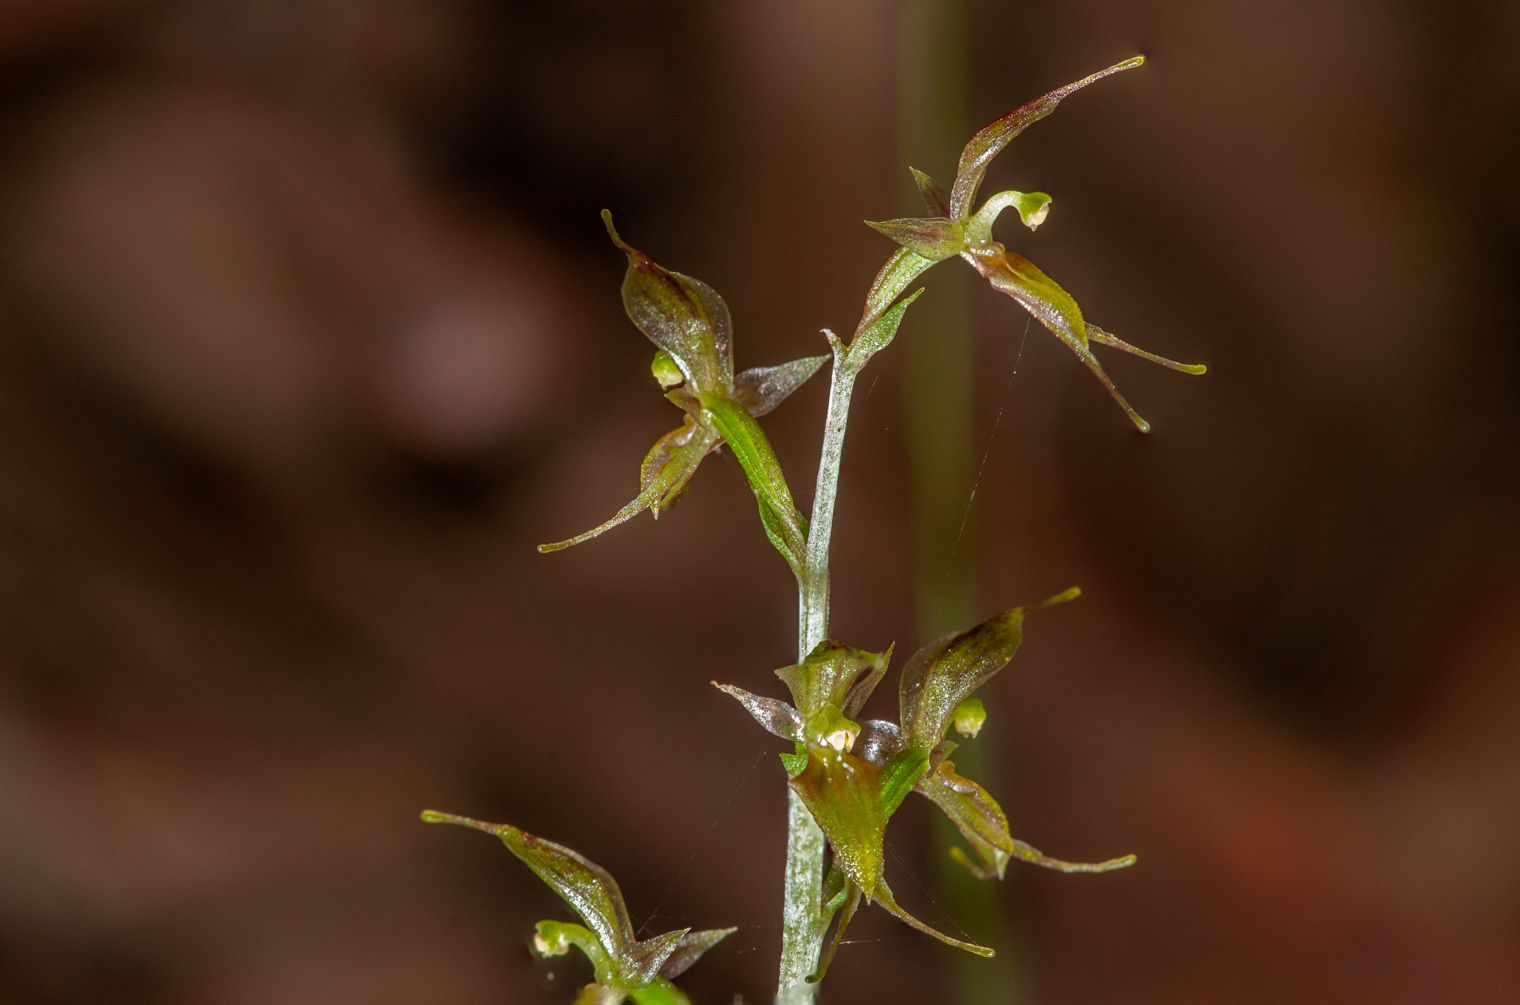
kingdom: Plantae
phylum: Tracheophyta
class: Liliopsida
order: Asparagales
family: Orchidaceae
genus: Acianthus
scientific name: Acianthus pusillus
